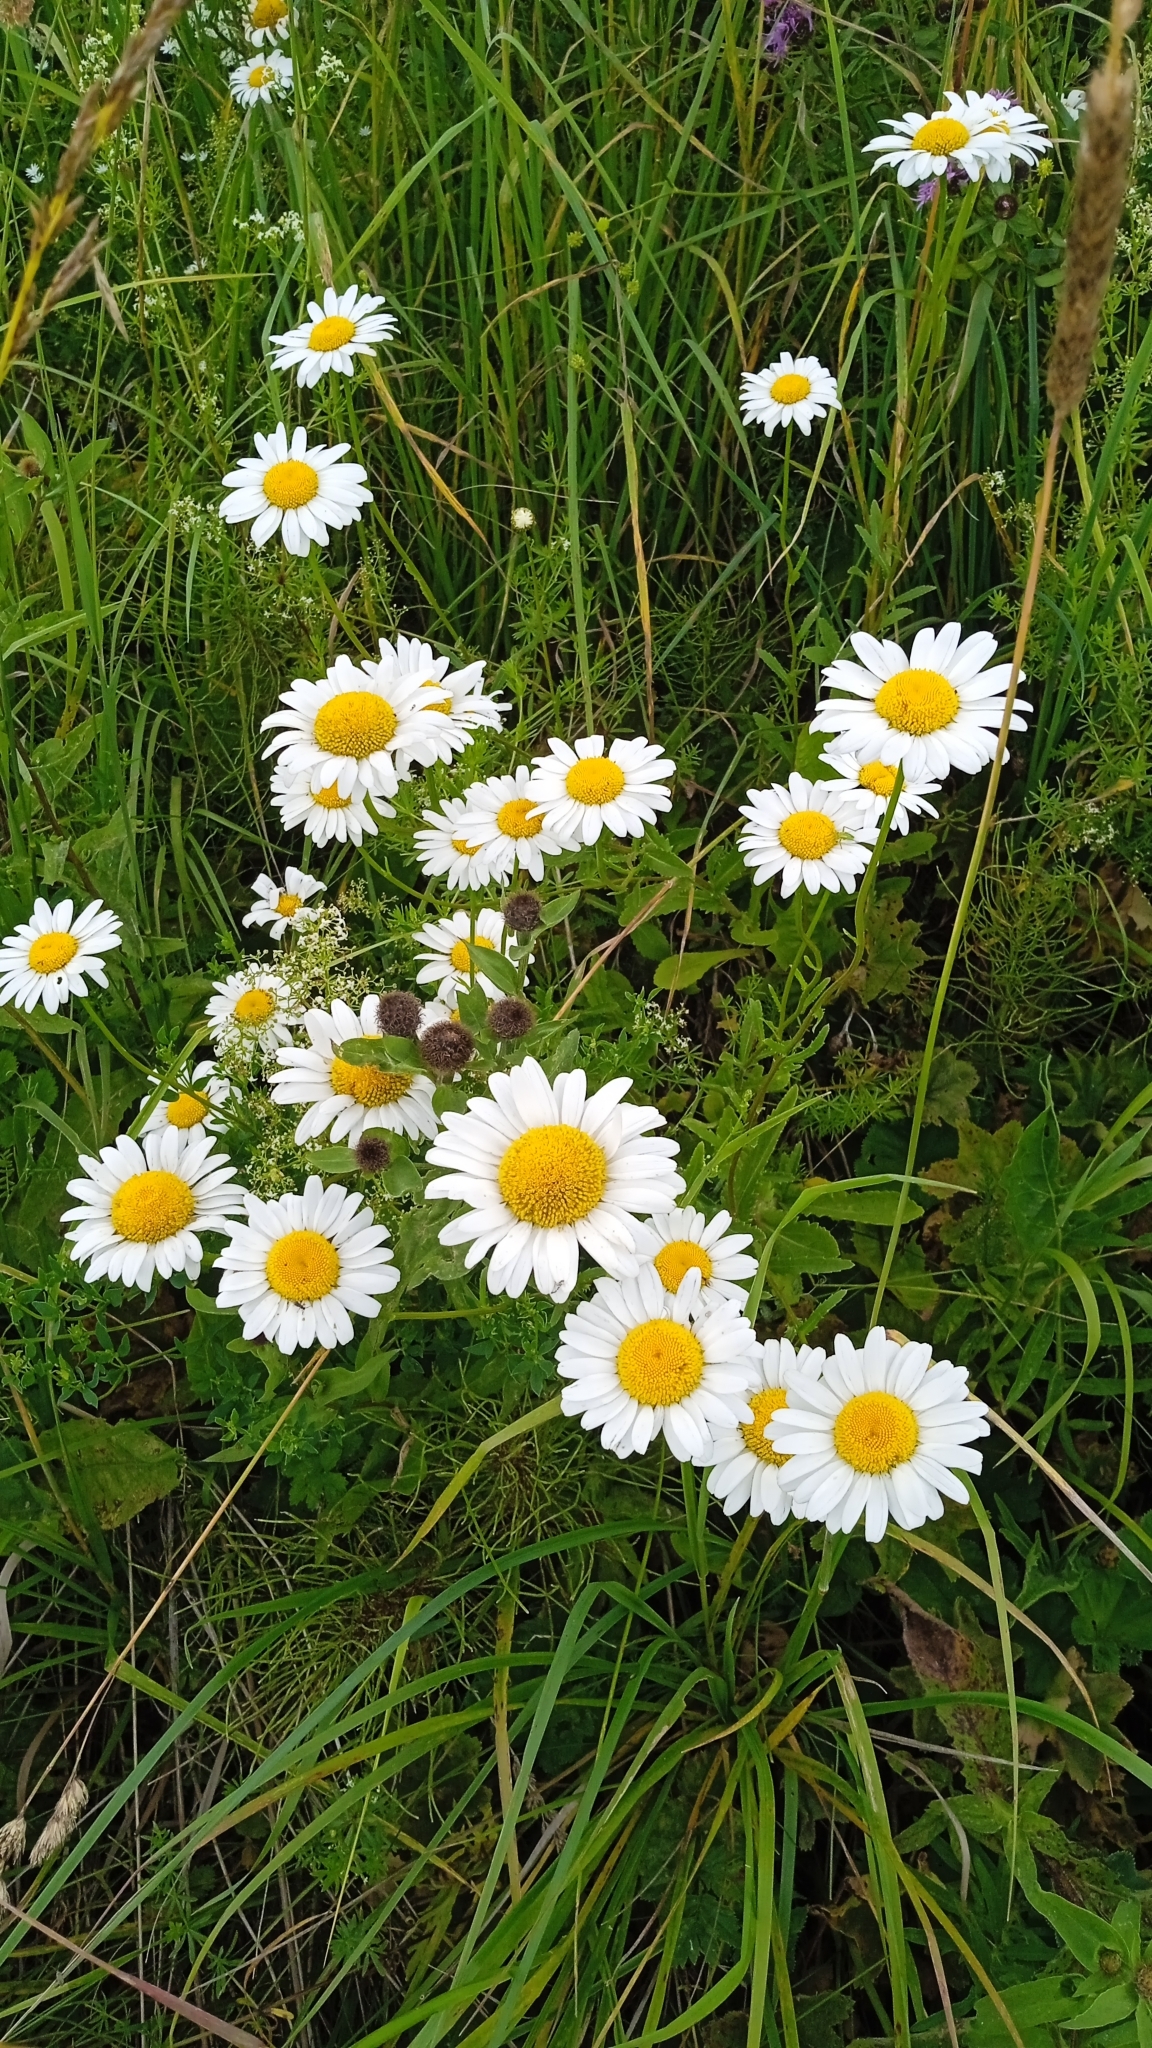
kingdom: Plantae
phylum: Tracheophyta
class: Magnoliopsida
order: Asterales
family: Asteraceae
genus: Leucanthemum
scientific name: Leucanthemum ircutianum
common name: Daisy
